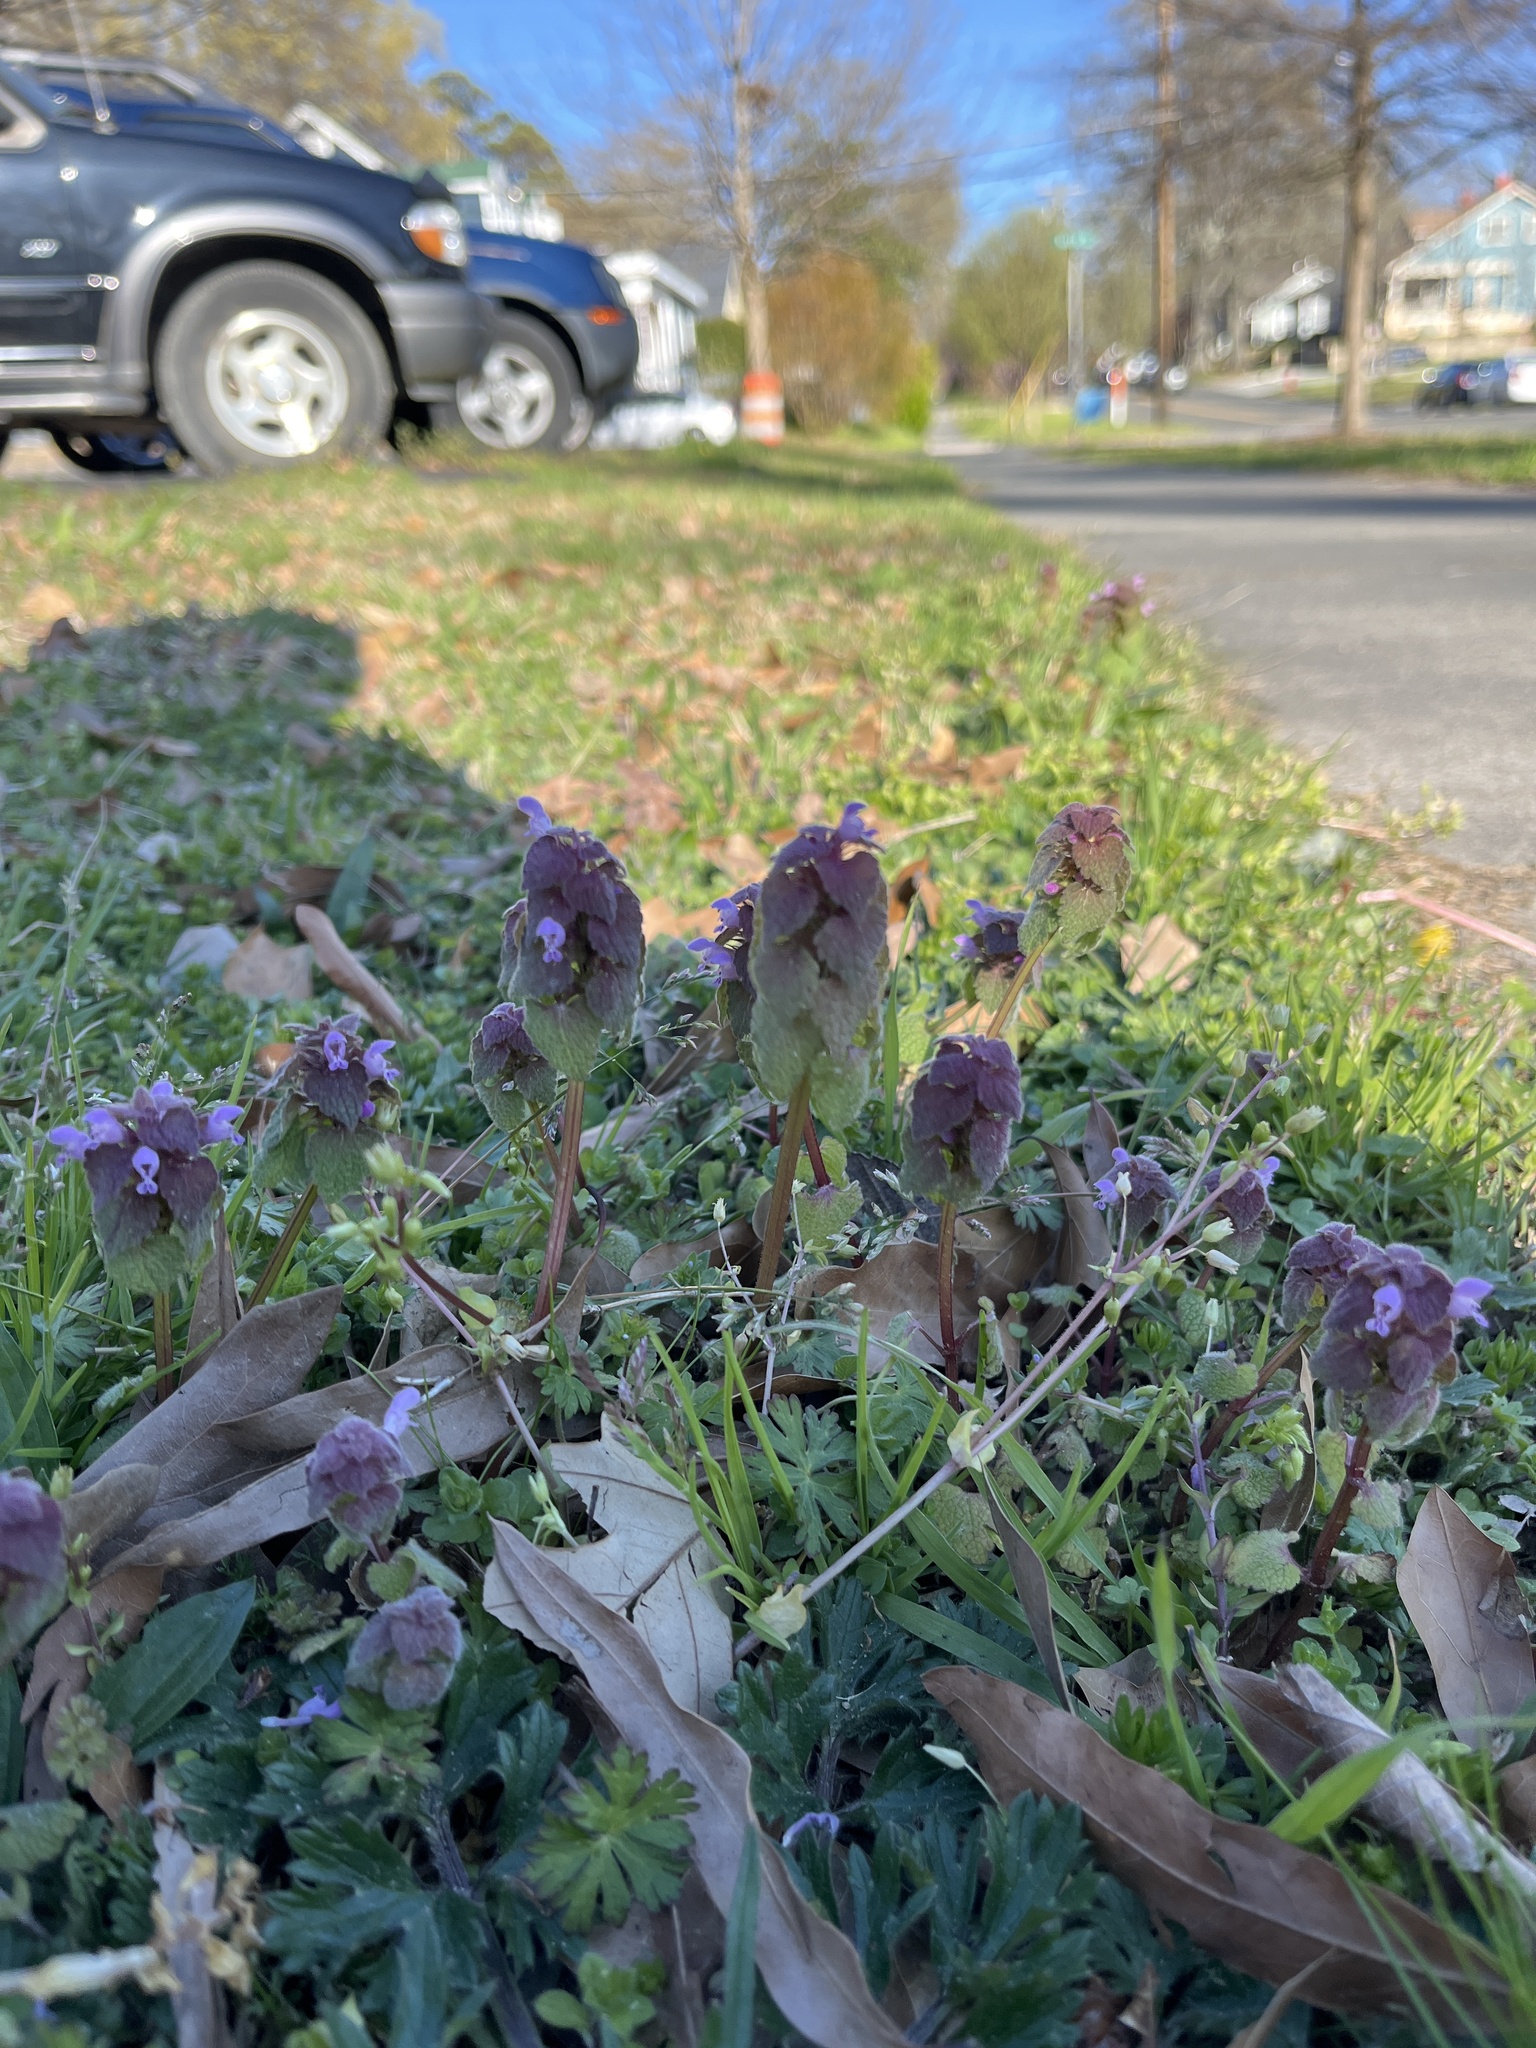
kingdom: Plantae
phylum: Tracheophyta
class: Magnoliopsida
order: Lamiales
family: Lamiaceae
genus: Lamium
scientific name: Lamium purpureum
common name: Red dead-nettle
